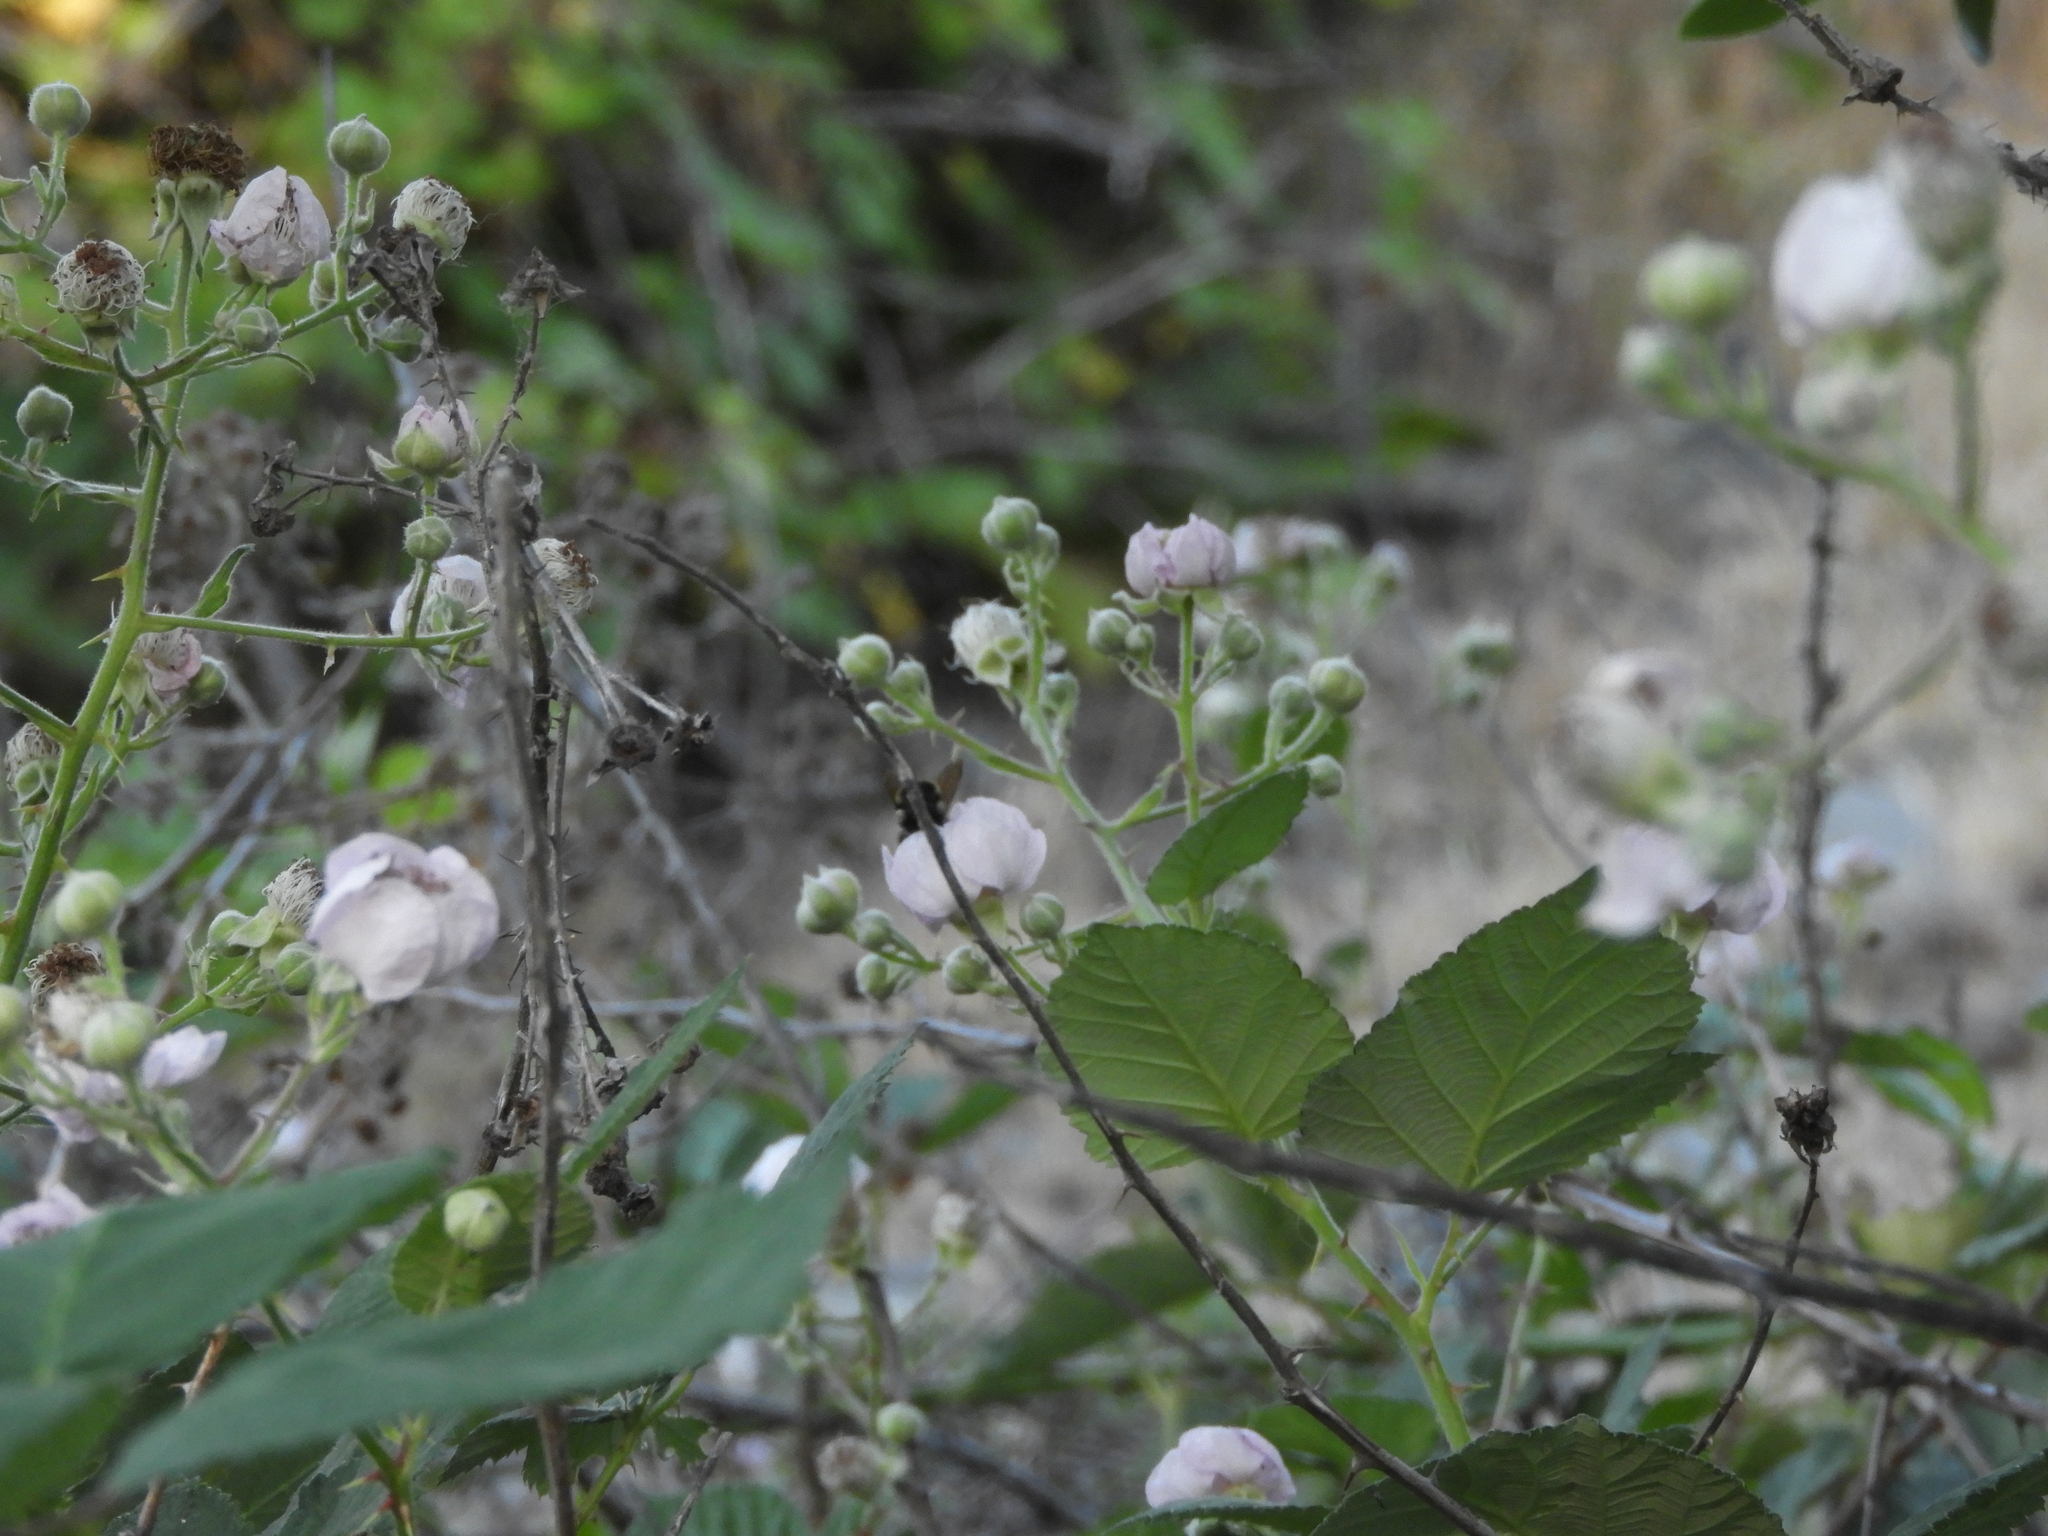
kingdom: Plantae
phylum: Tracheophyta
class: Magnoliopsida
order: Rosales
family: Rosaceae
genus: Rubus
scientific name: Rubus armeniacus
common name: Himalayan blackberry
